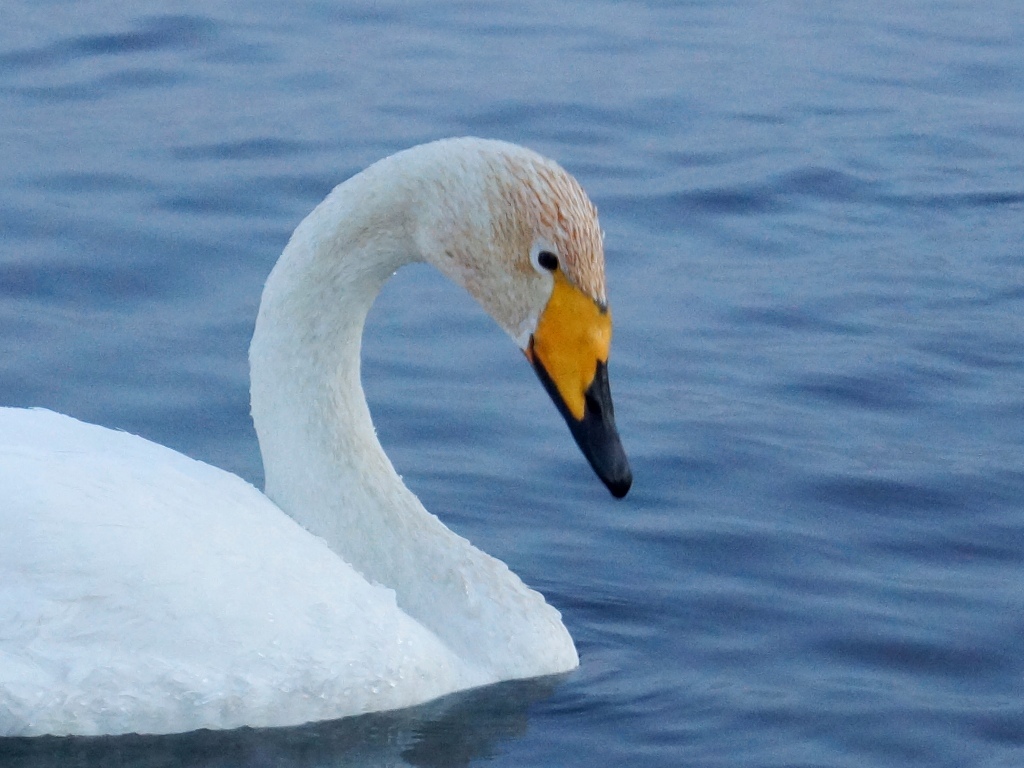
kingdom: Animalia
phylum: Chordata
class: Aves
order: Anseriformes
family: Anatidae
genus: Cygnus
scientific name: Cygnus cygnus
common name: Whooper swan
